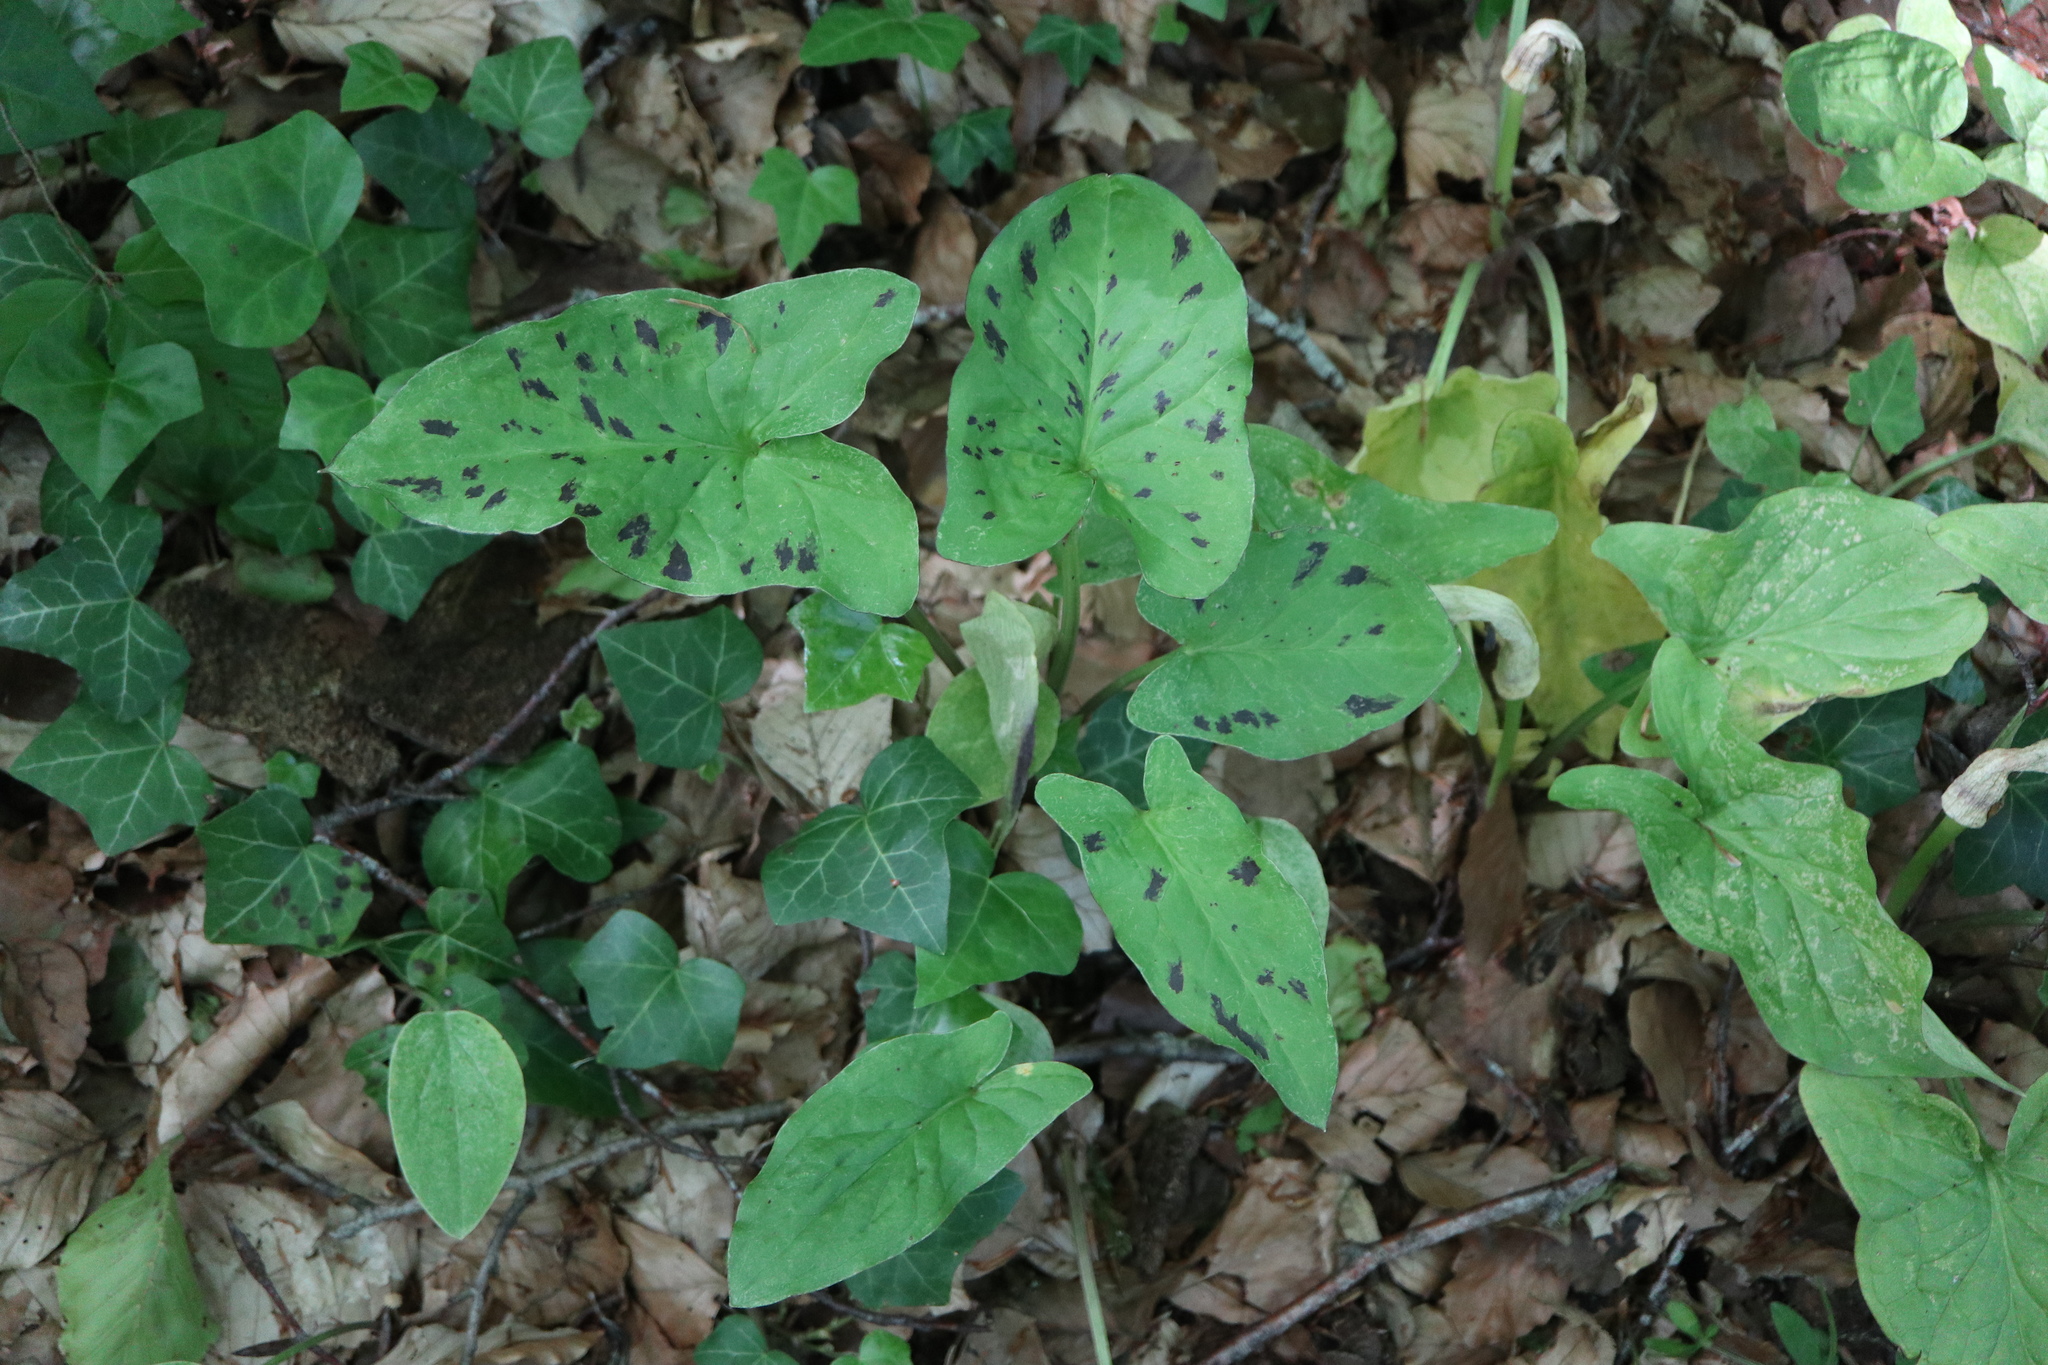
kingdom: Plantae
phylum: Tracheophyta
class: Liliopsida
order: Alismatales
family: Araceae
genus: Arum
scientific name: Arum maculatum
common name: Lords-and-ladies
